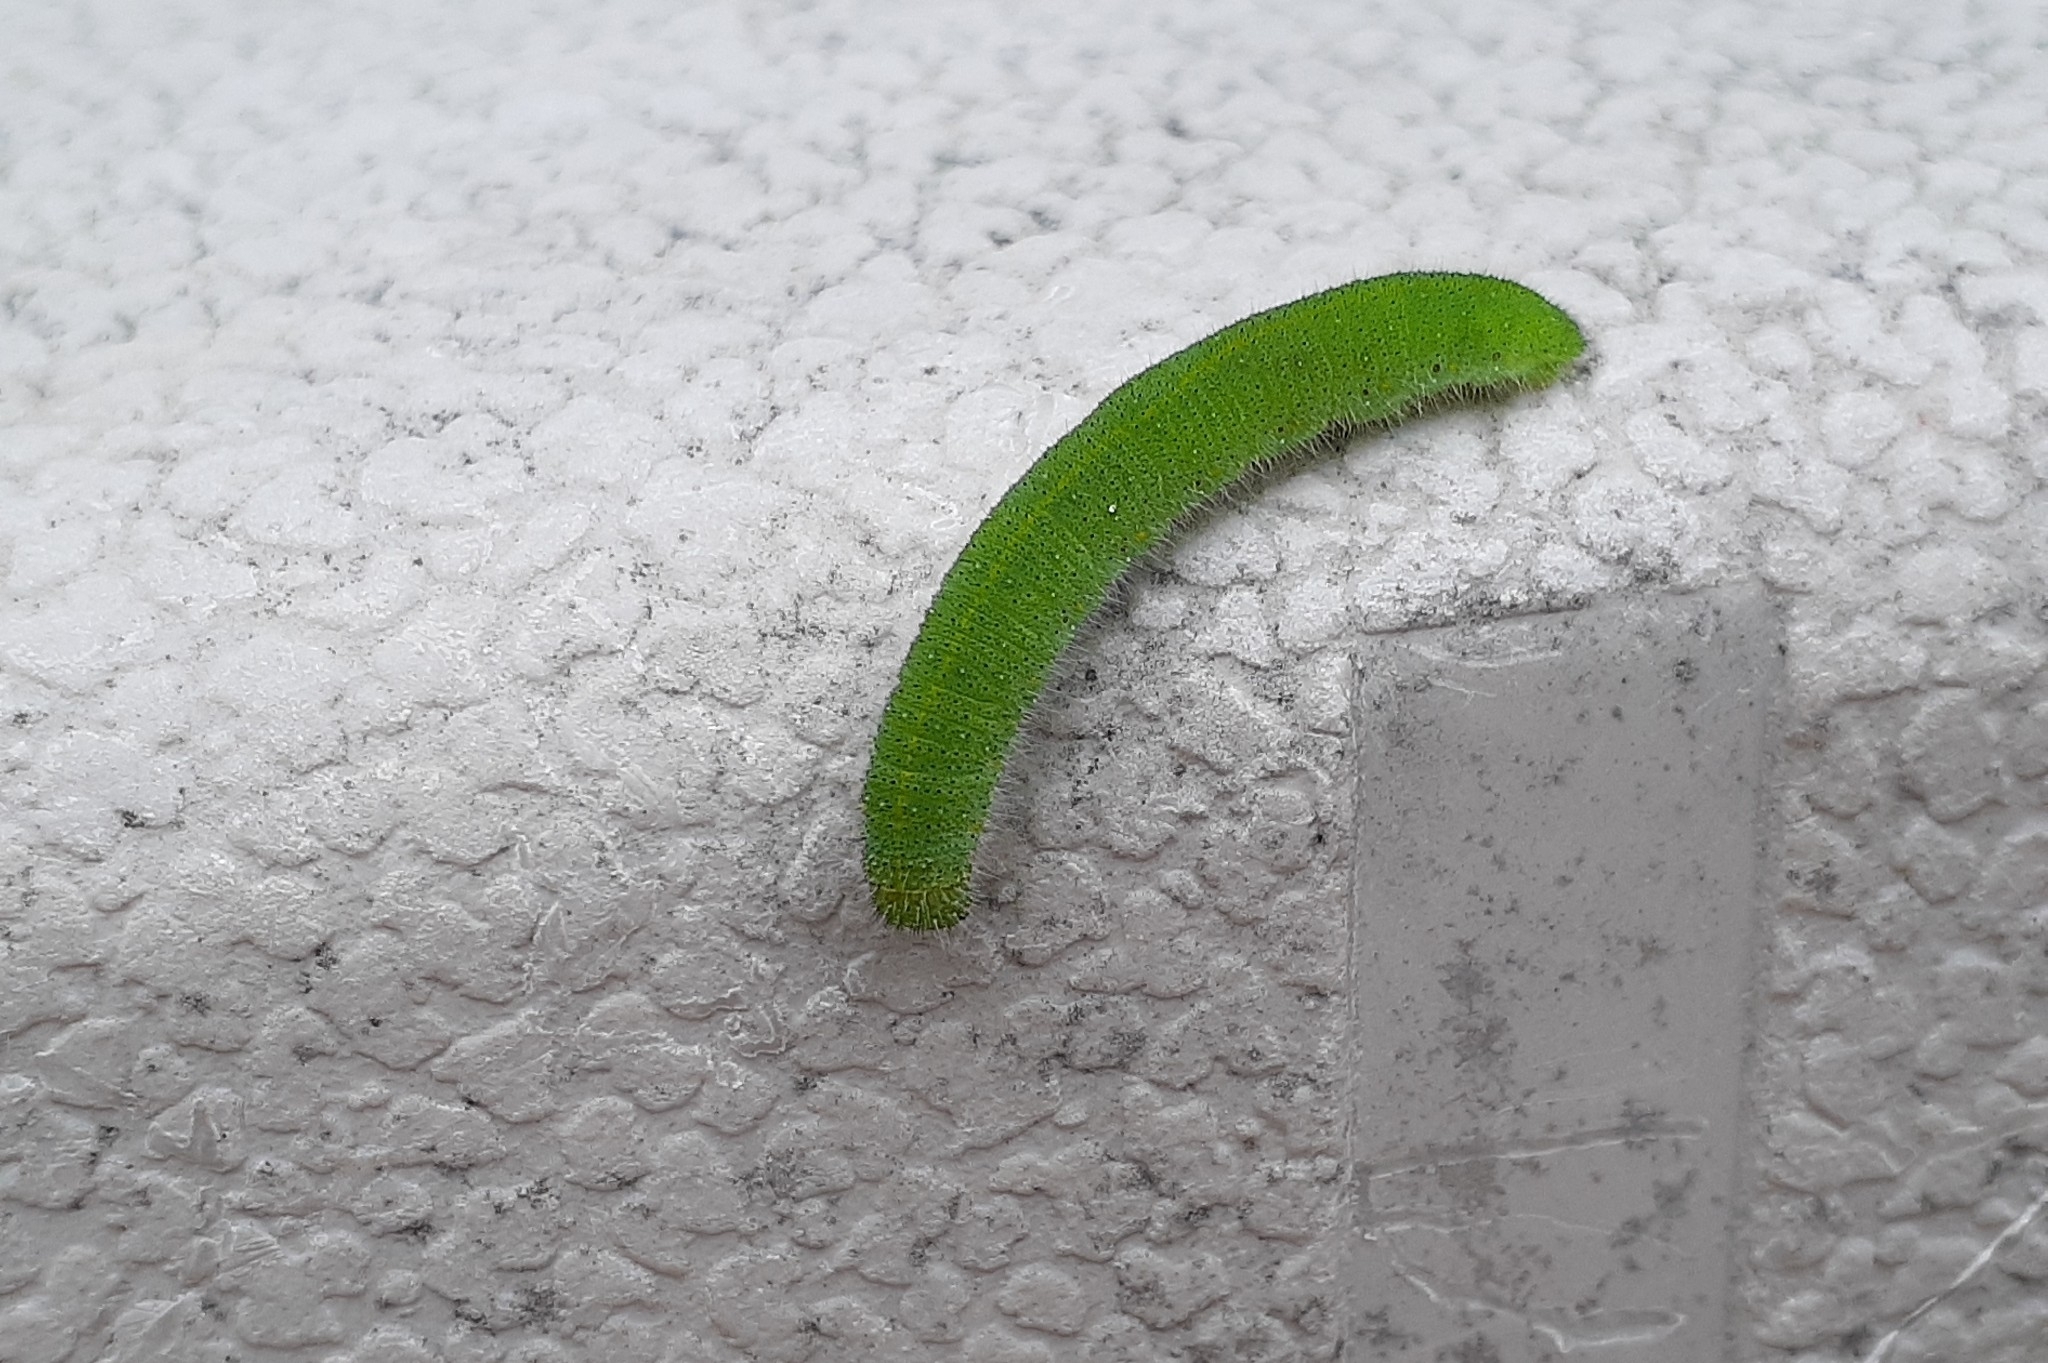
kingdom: Animalia
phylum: Arthropoda
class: Insecta
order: Lepidoptera
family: Pieridae
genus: Pieris
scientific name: Pieris rapae
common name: Small white
